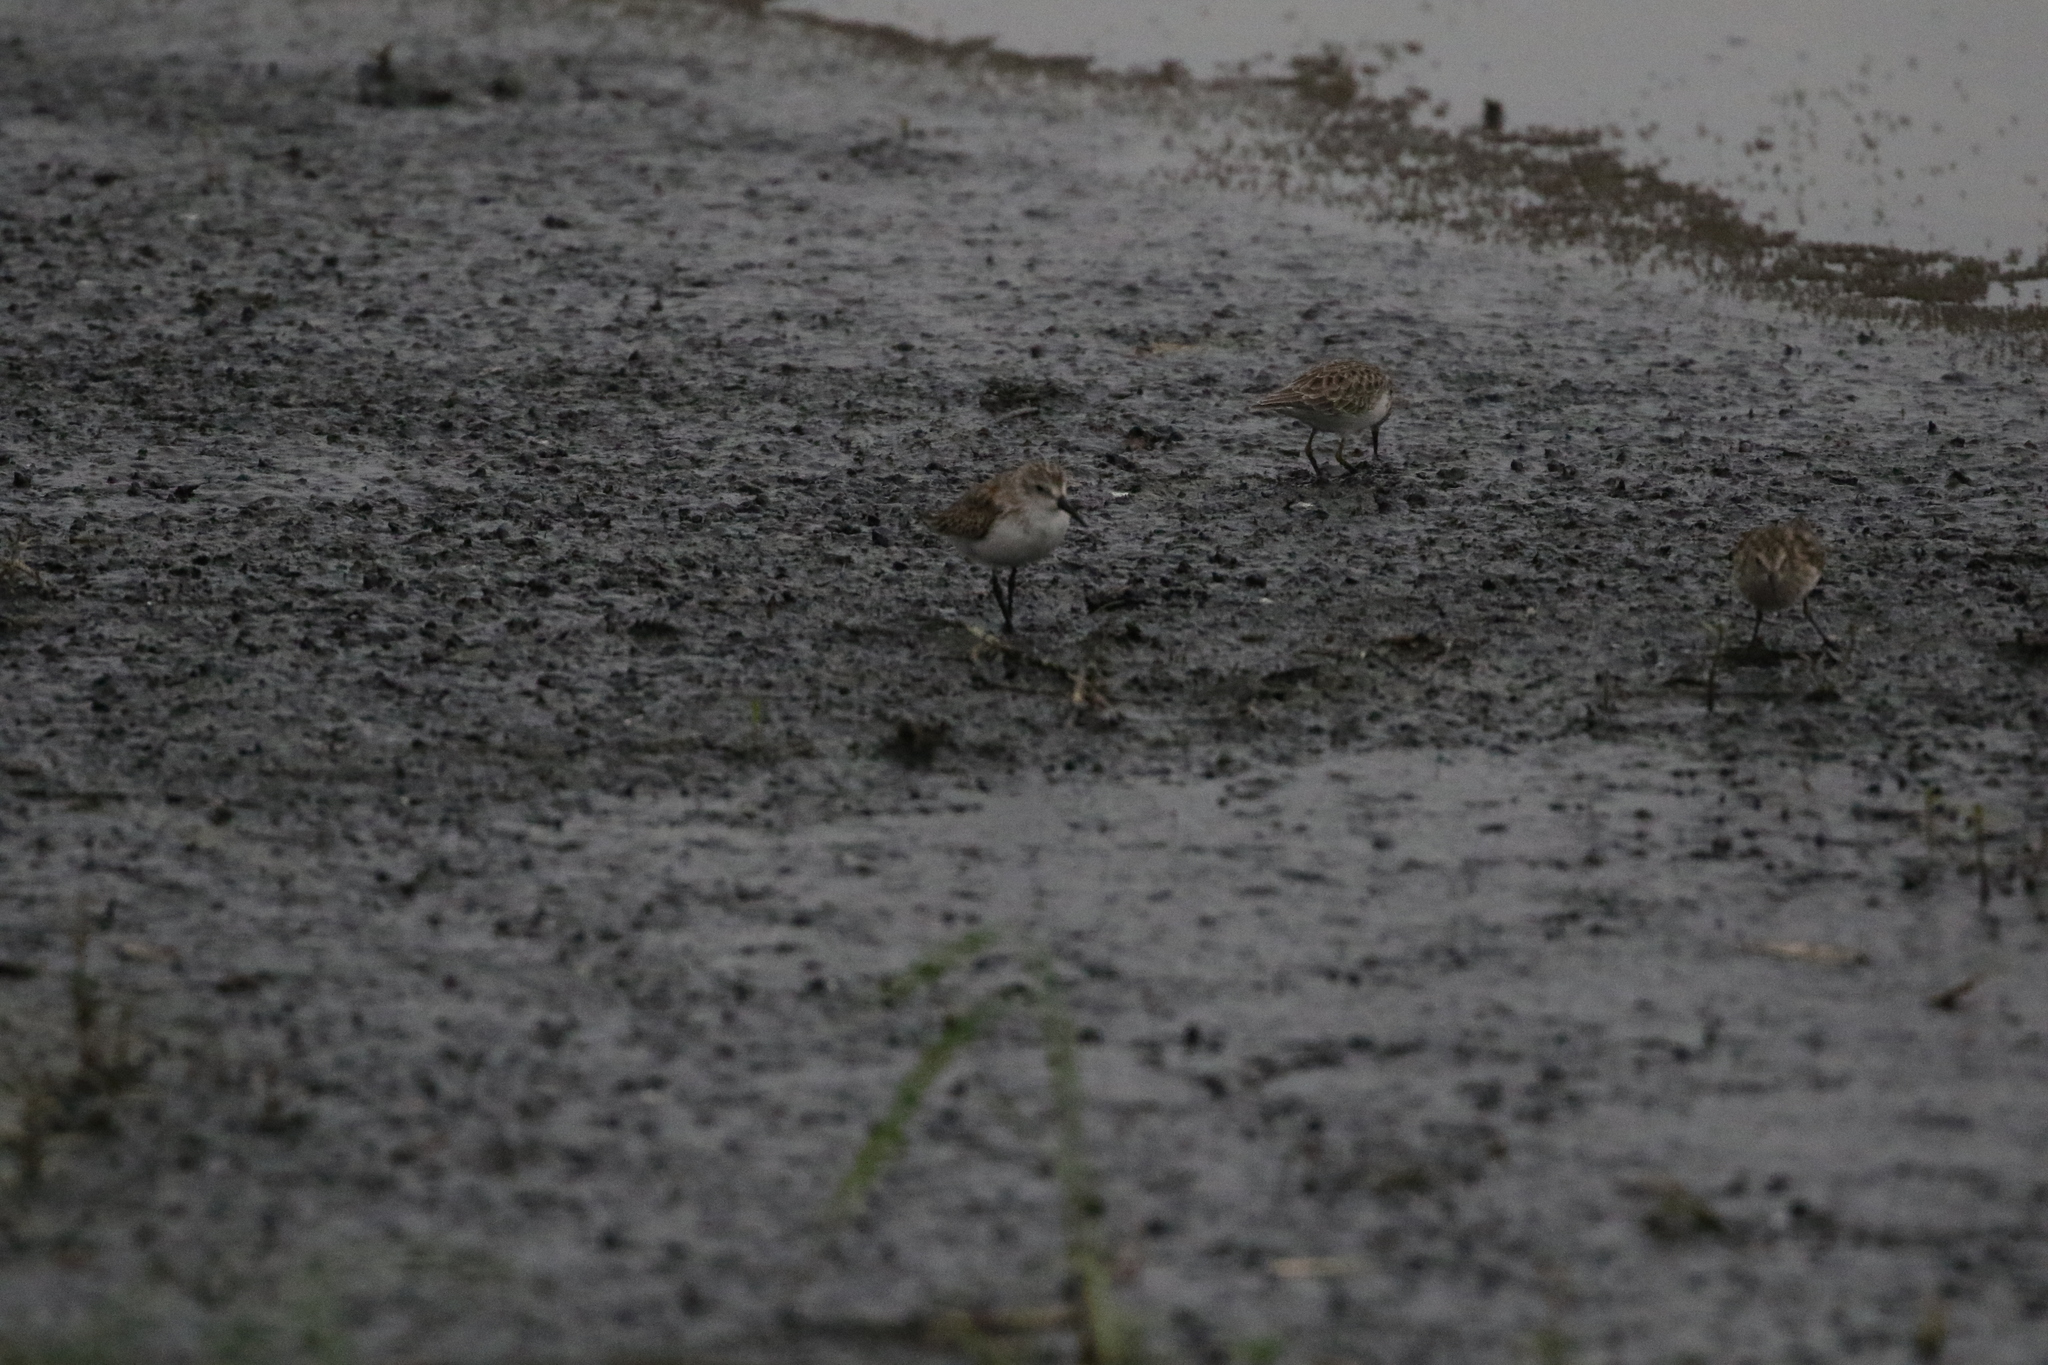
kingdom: Animalia
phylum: Chordata
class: Aves
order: Charadriiformes
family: Scolopacidae
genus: Calidris
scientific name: Calidris mauri
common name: Western sandpiper
